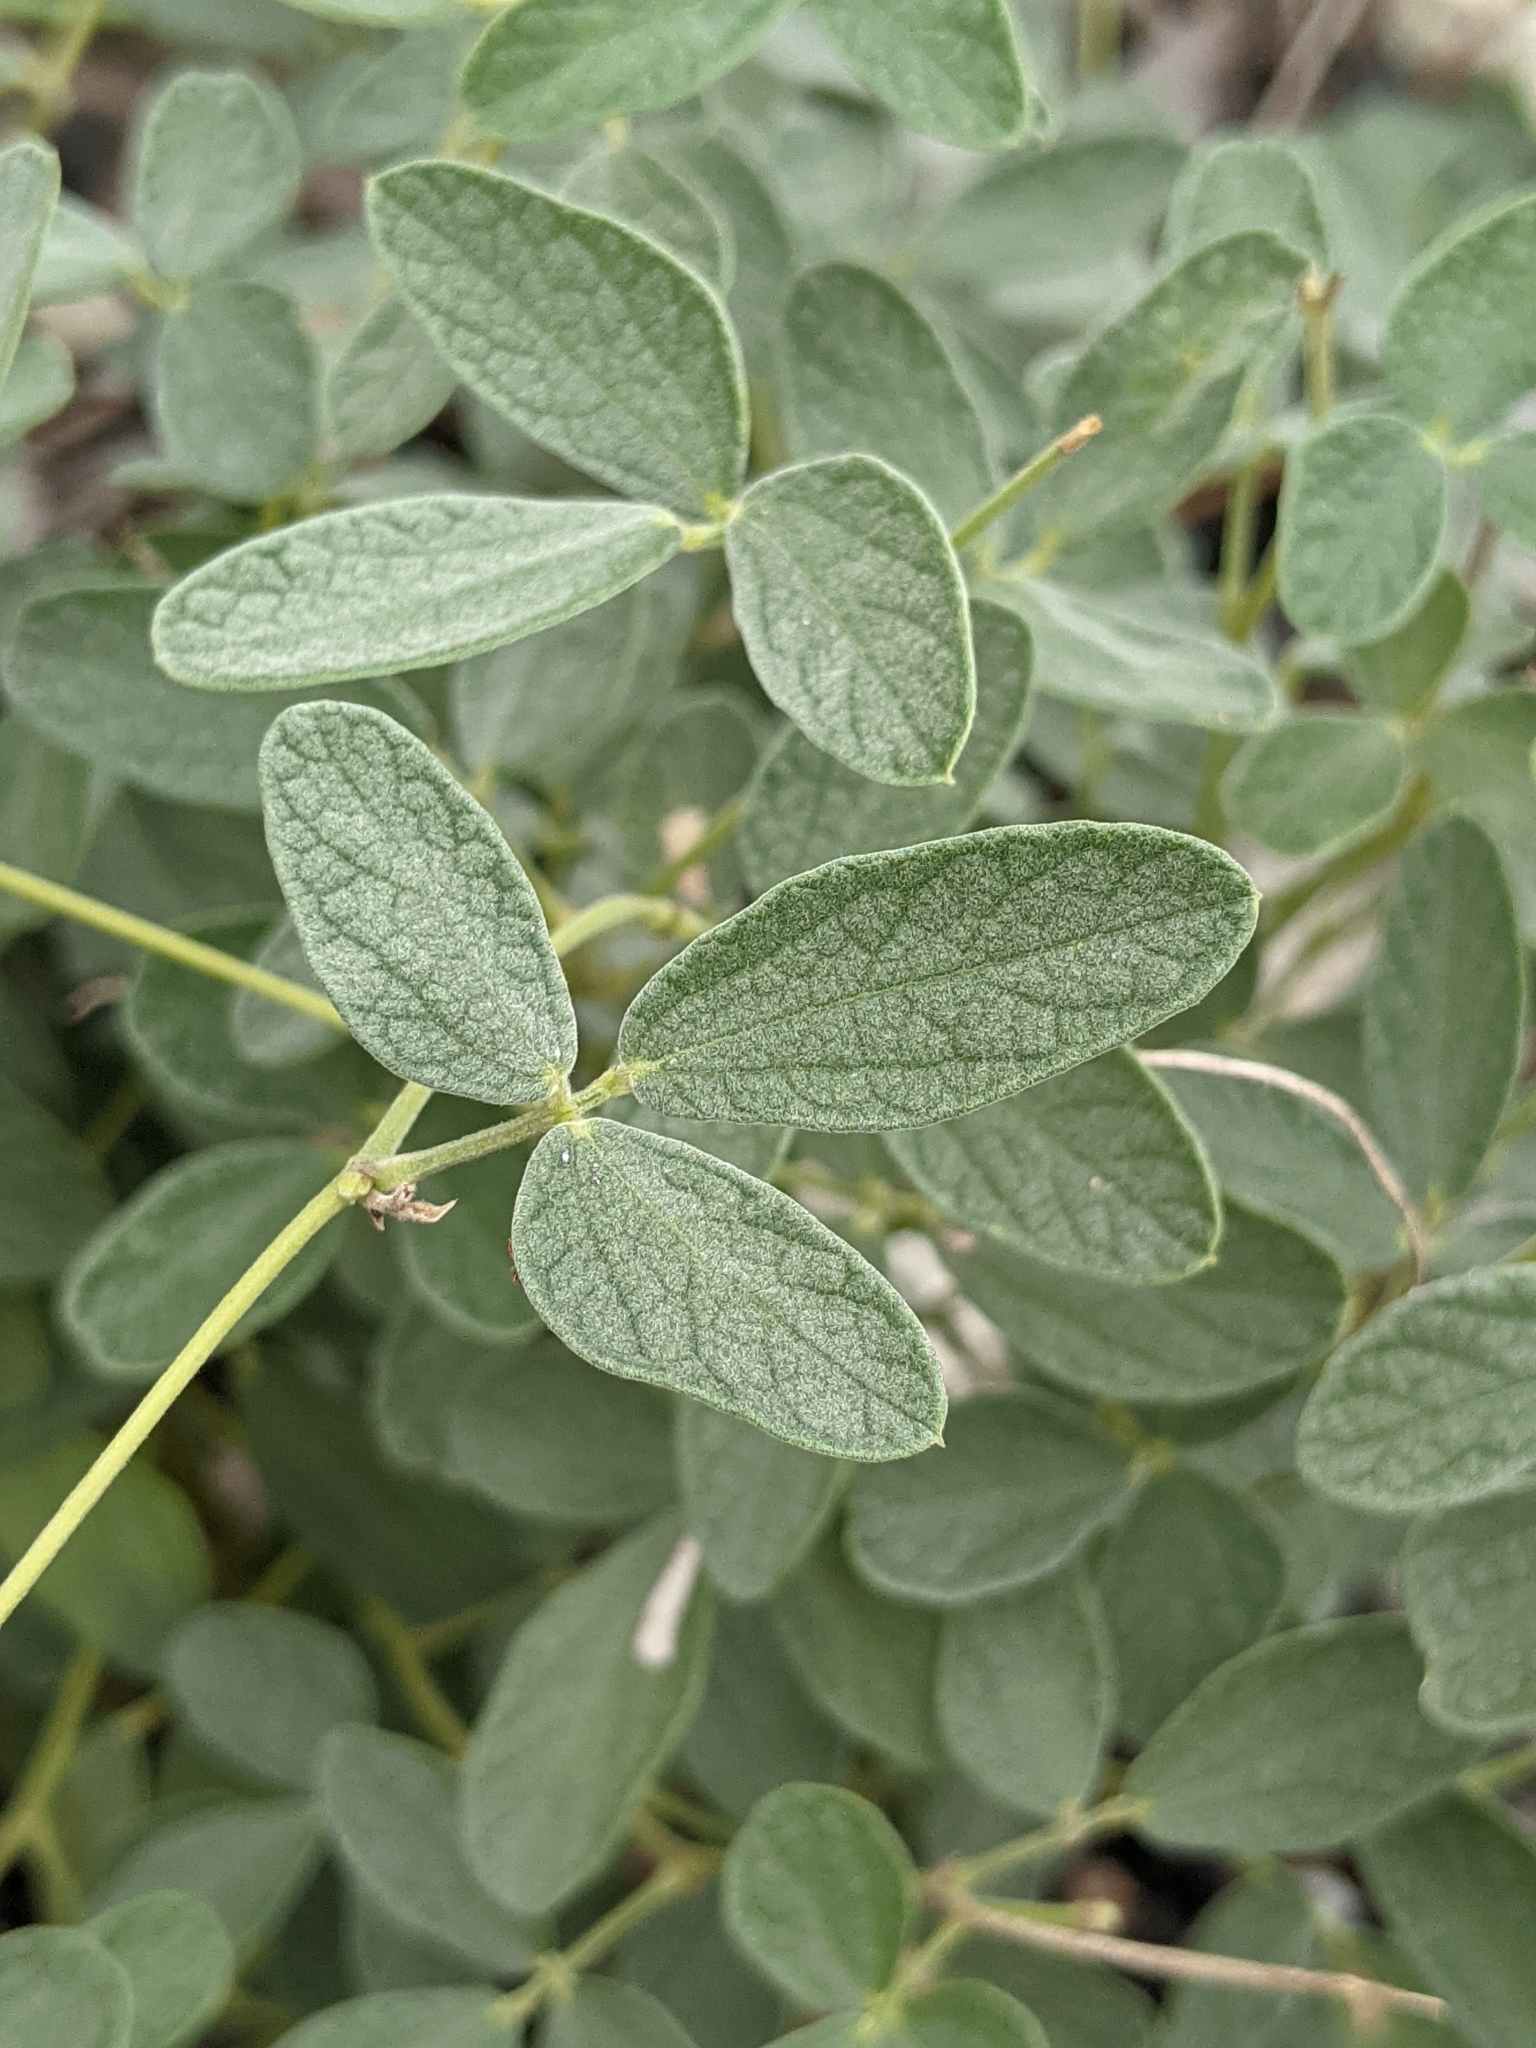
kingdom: Plantae
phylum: Tracheophyta
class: Magnoliopsida
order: Fabales
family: Fabaceae
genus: Rhynchosia
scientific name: Rhynchosia parvifolia
